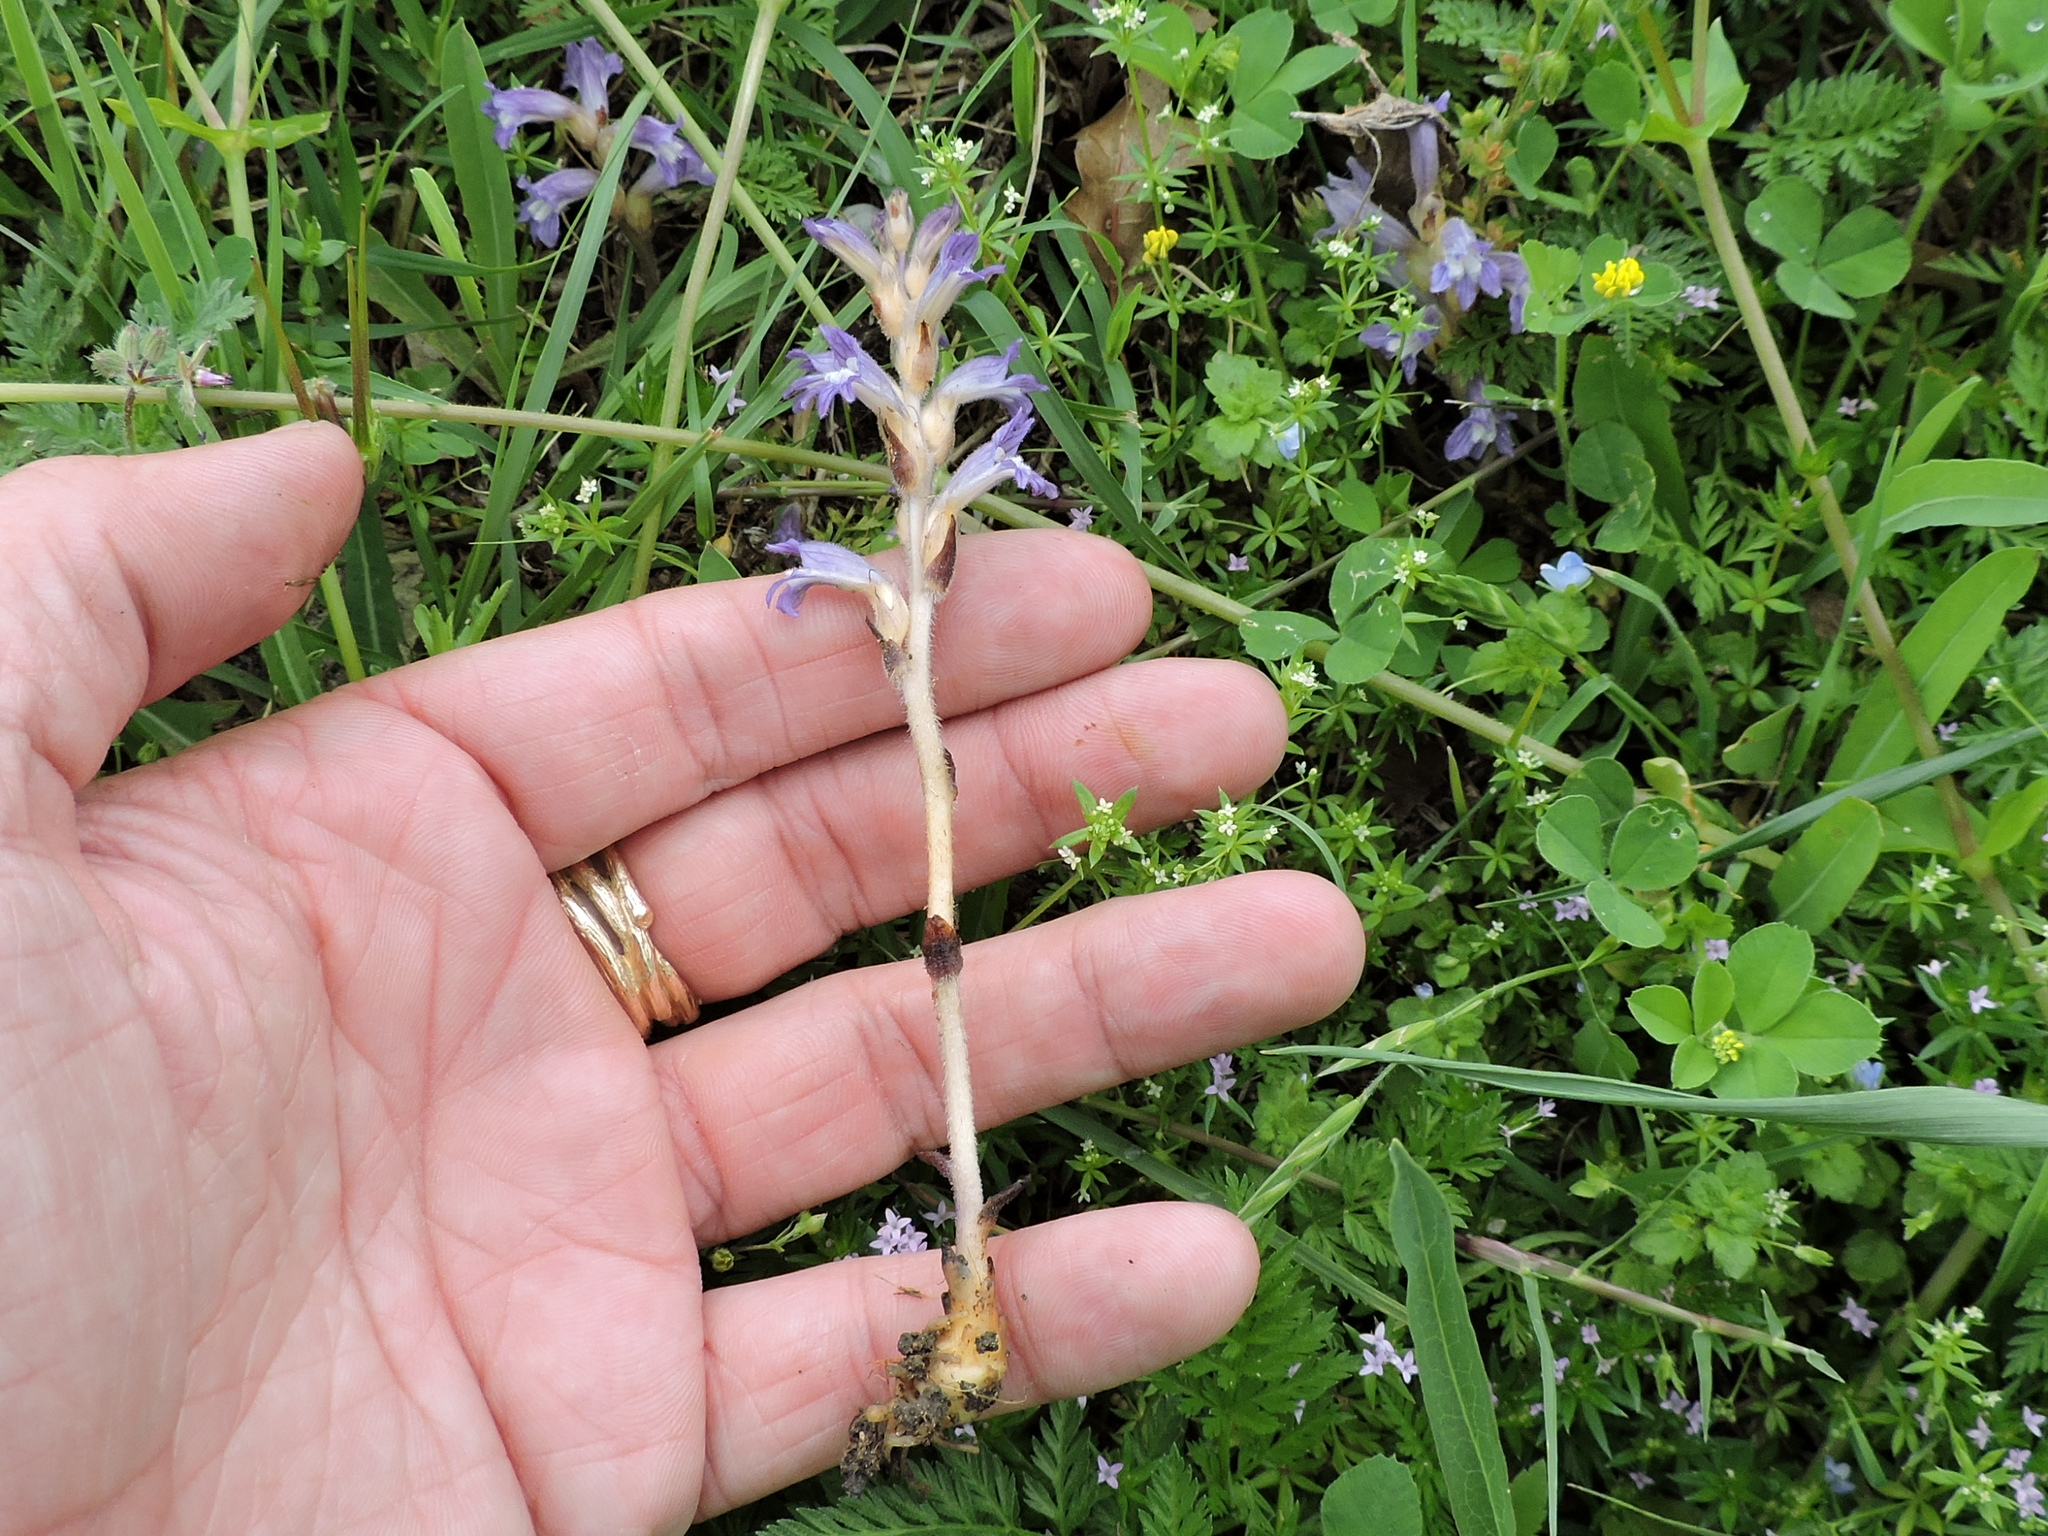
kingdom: Plantae
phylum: Tracheophyta
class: Magnoliopsida
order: Lamiales
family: Orobanchaceae
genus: Phelipanche
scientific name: Phelipanche mutelii
